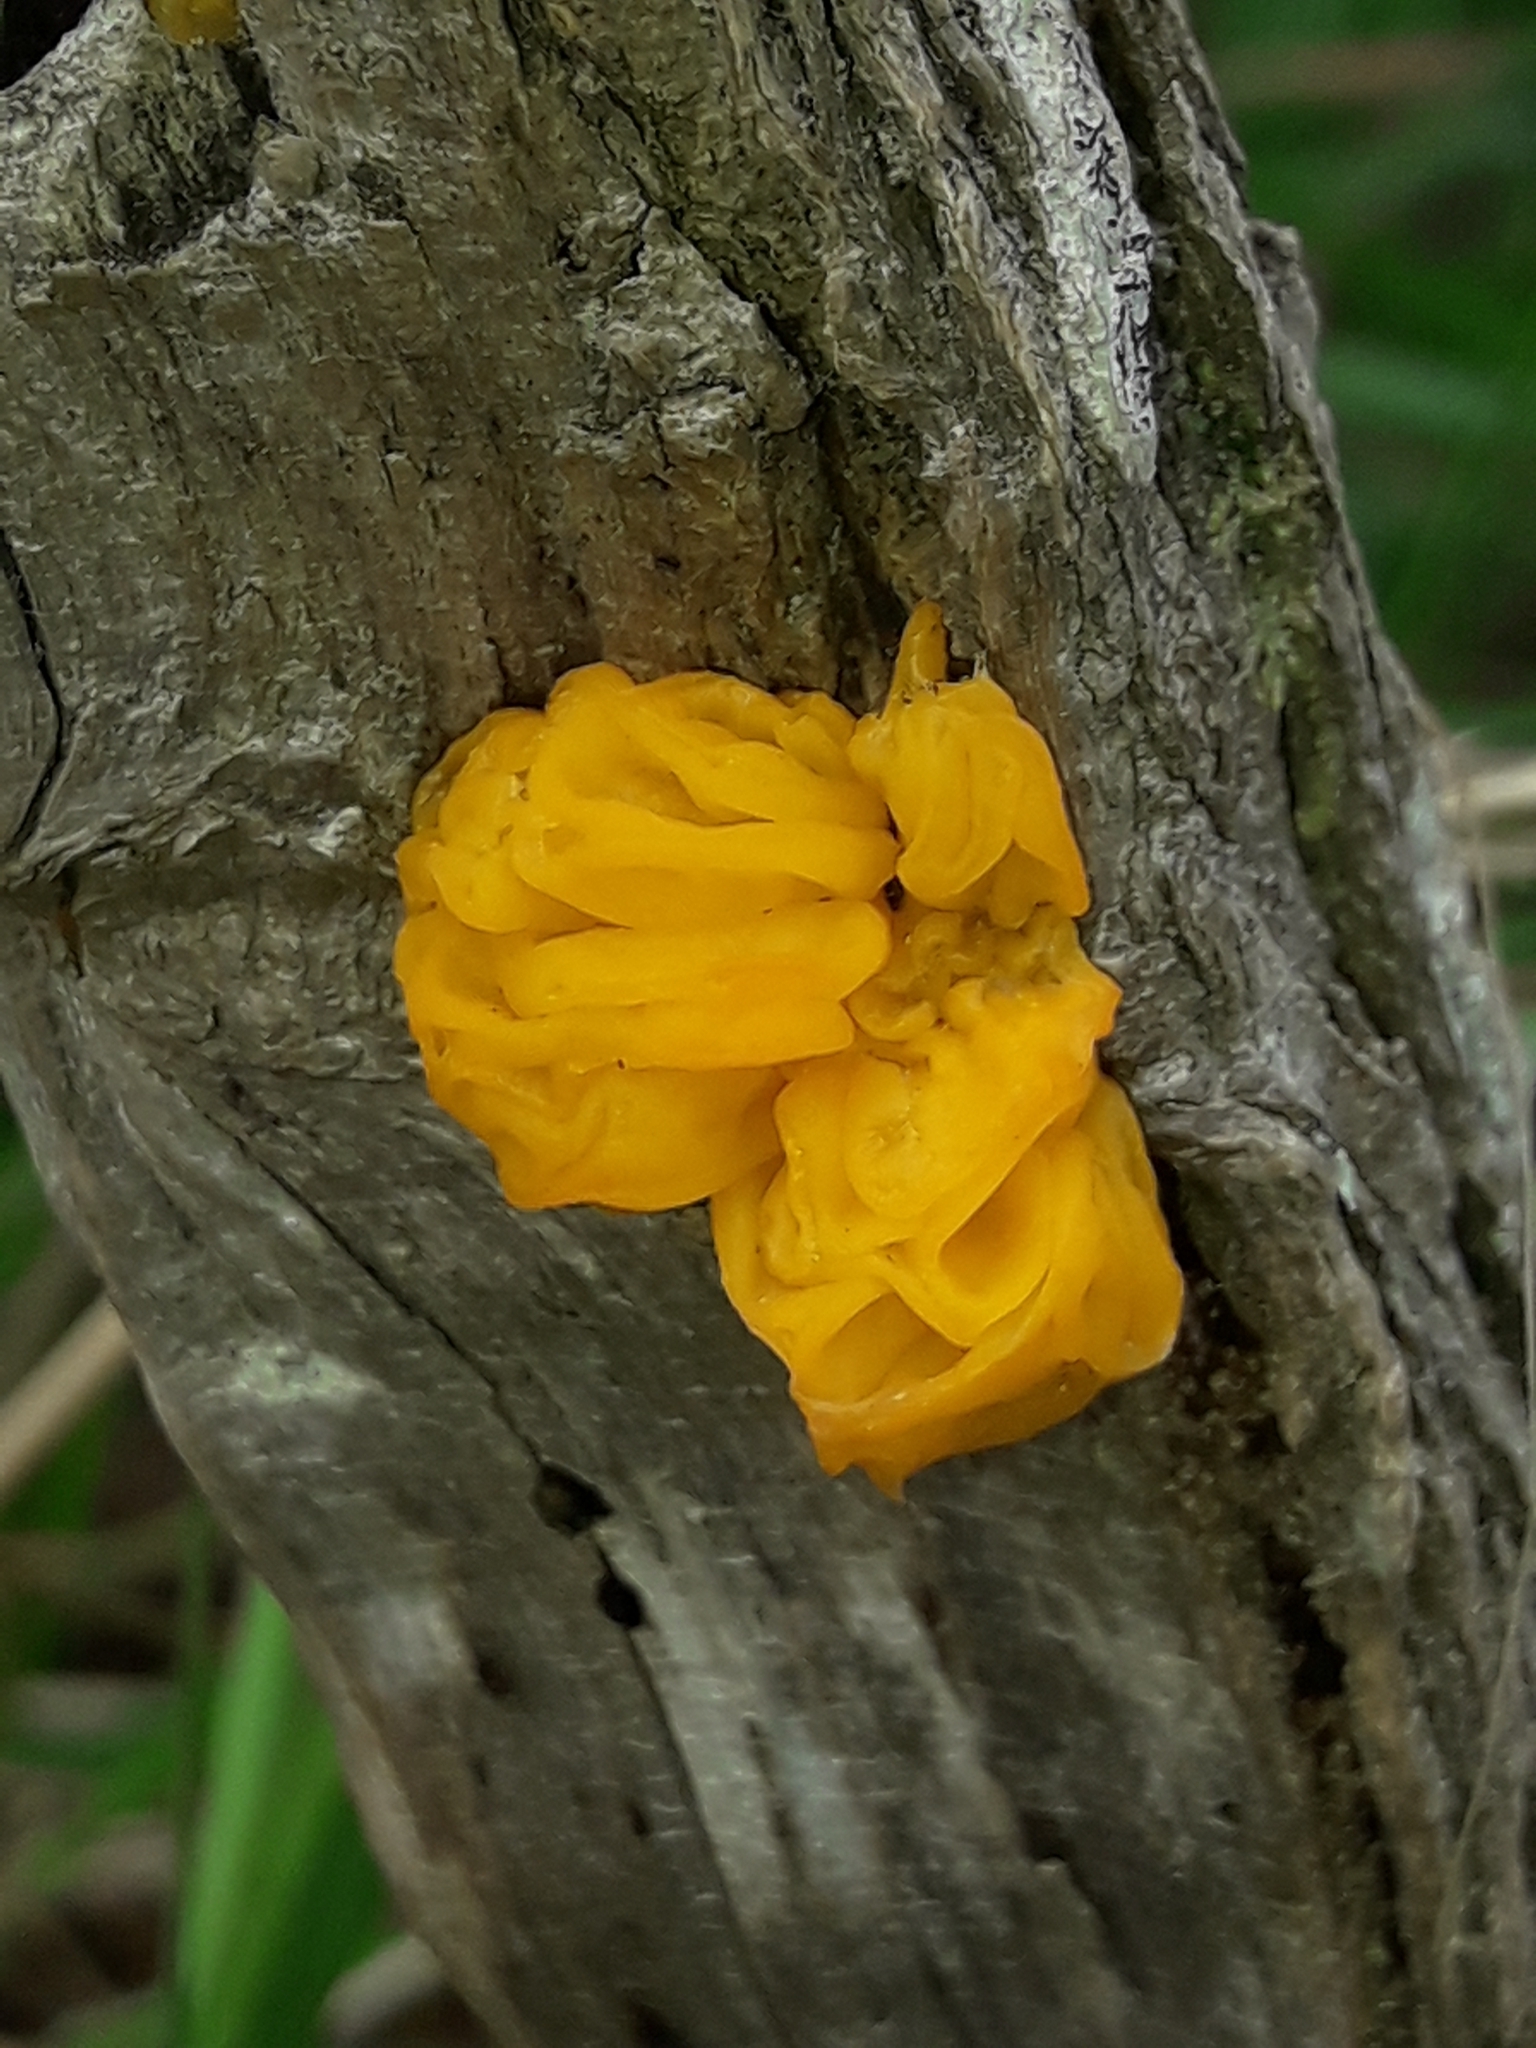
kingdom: Fungi
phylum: Basidiomycota
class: Tremellomycetes
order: Tremellales
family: Tremellaceae
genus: Tremella
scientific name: Tremella mesenterica
